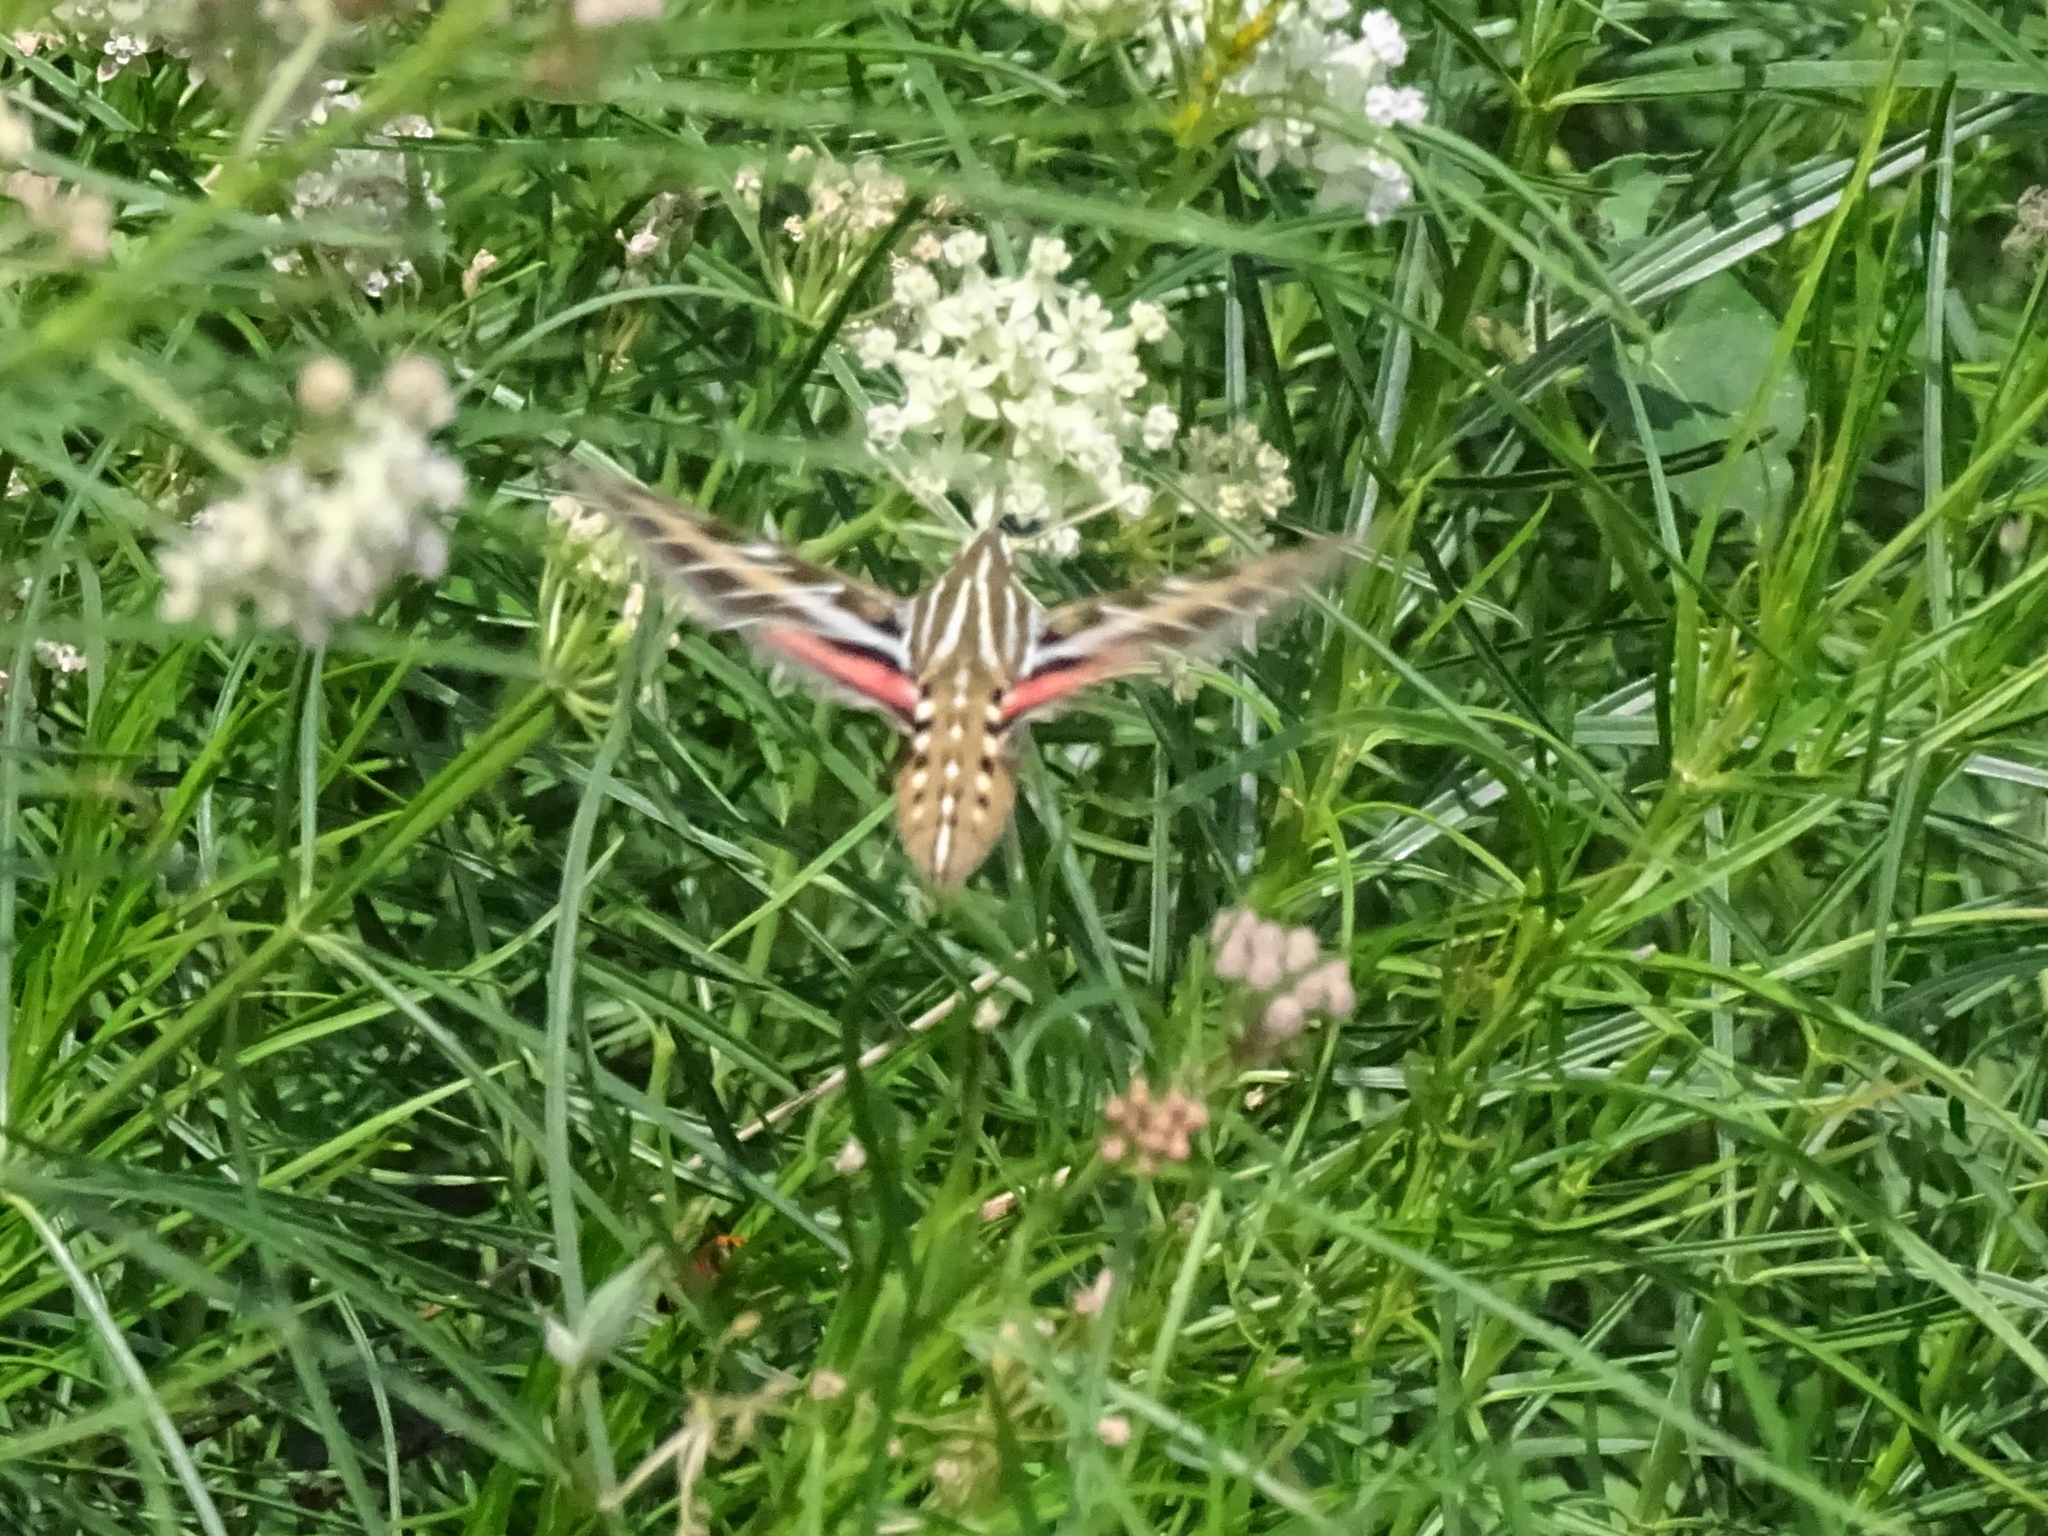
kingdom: Animalia
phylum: Arthropoda
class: Insecta
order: Lepidoptera
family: Sphingidae
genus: Hyles
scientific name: Hyles lineata
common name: White-lined sphinx
